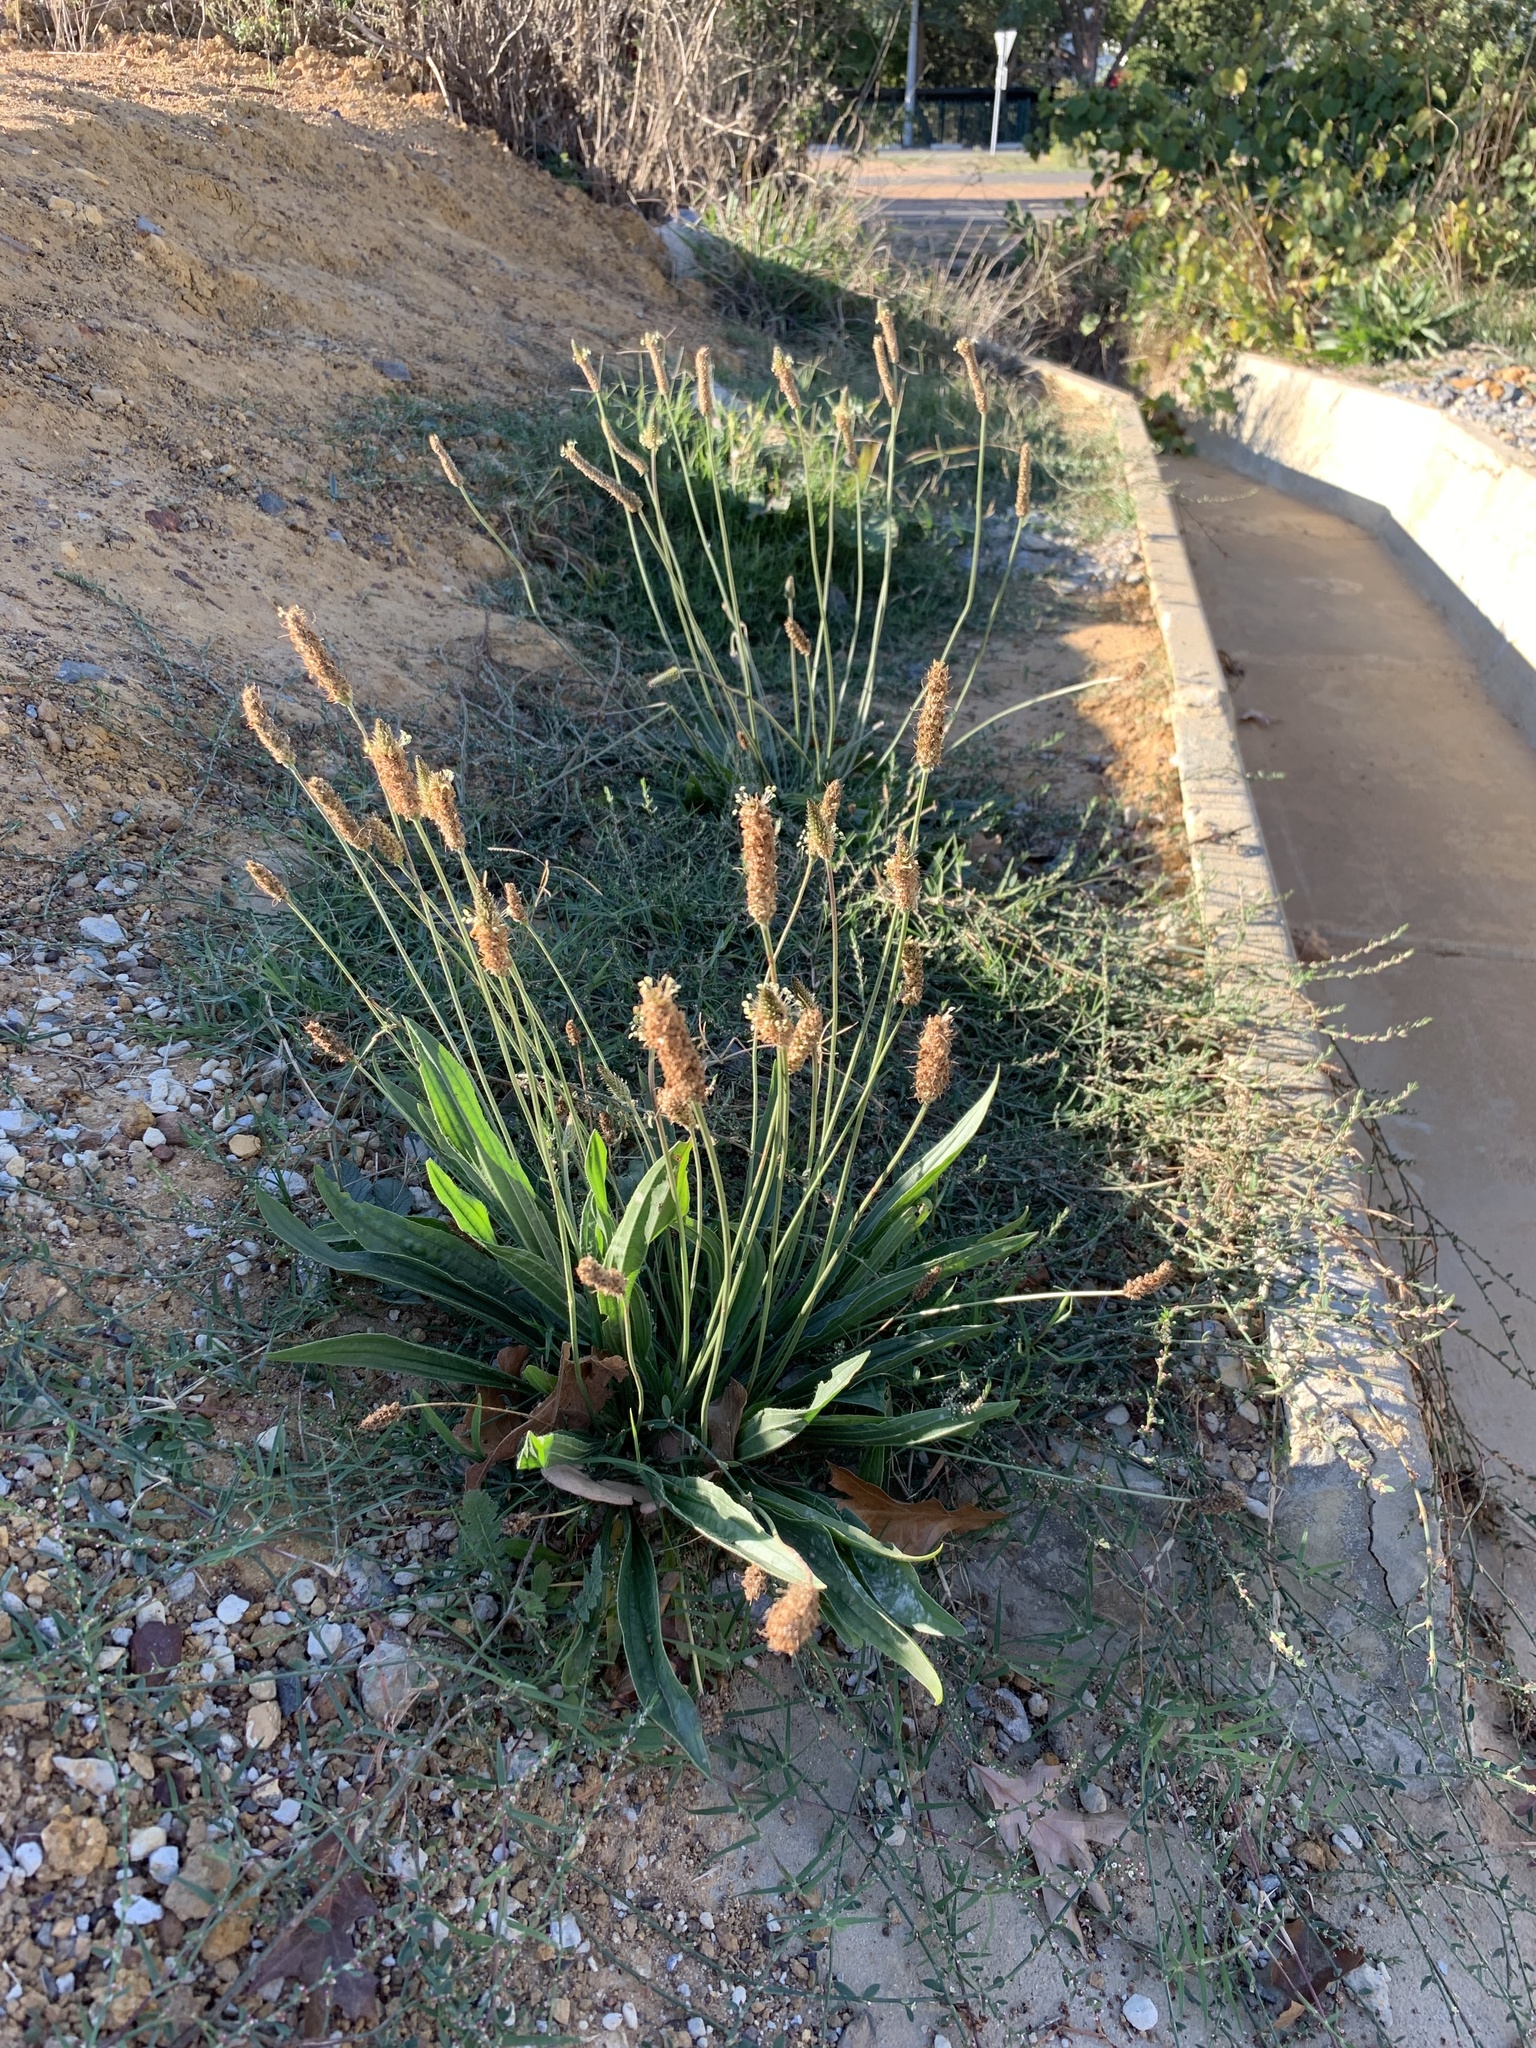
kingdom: Plantae
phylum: Tracheophyta
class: Magnoliopsida
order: Lamiales
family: Plantaginaceae
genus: Plantago
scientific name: Plantago lanceolata
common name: Ribwort plantain
